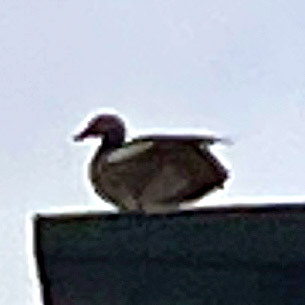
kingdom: Animalia
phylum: Chordata
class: Aves
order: Anseriformes
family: Anatidae
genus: Alopochen
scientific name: Alopochen aegyptiaca
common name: Egyptian goose
